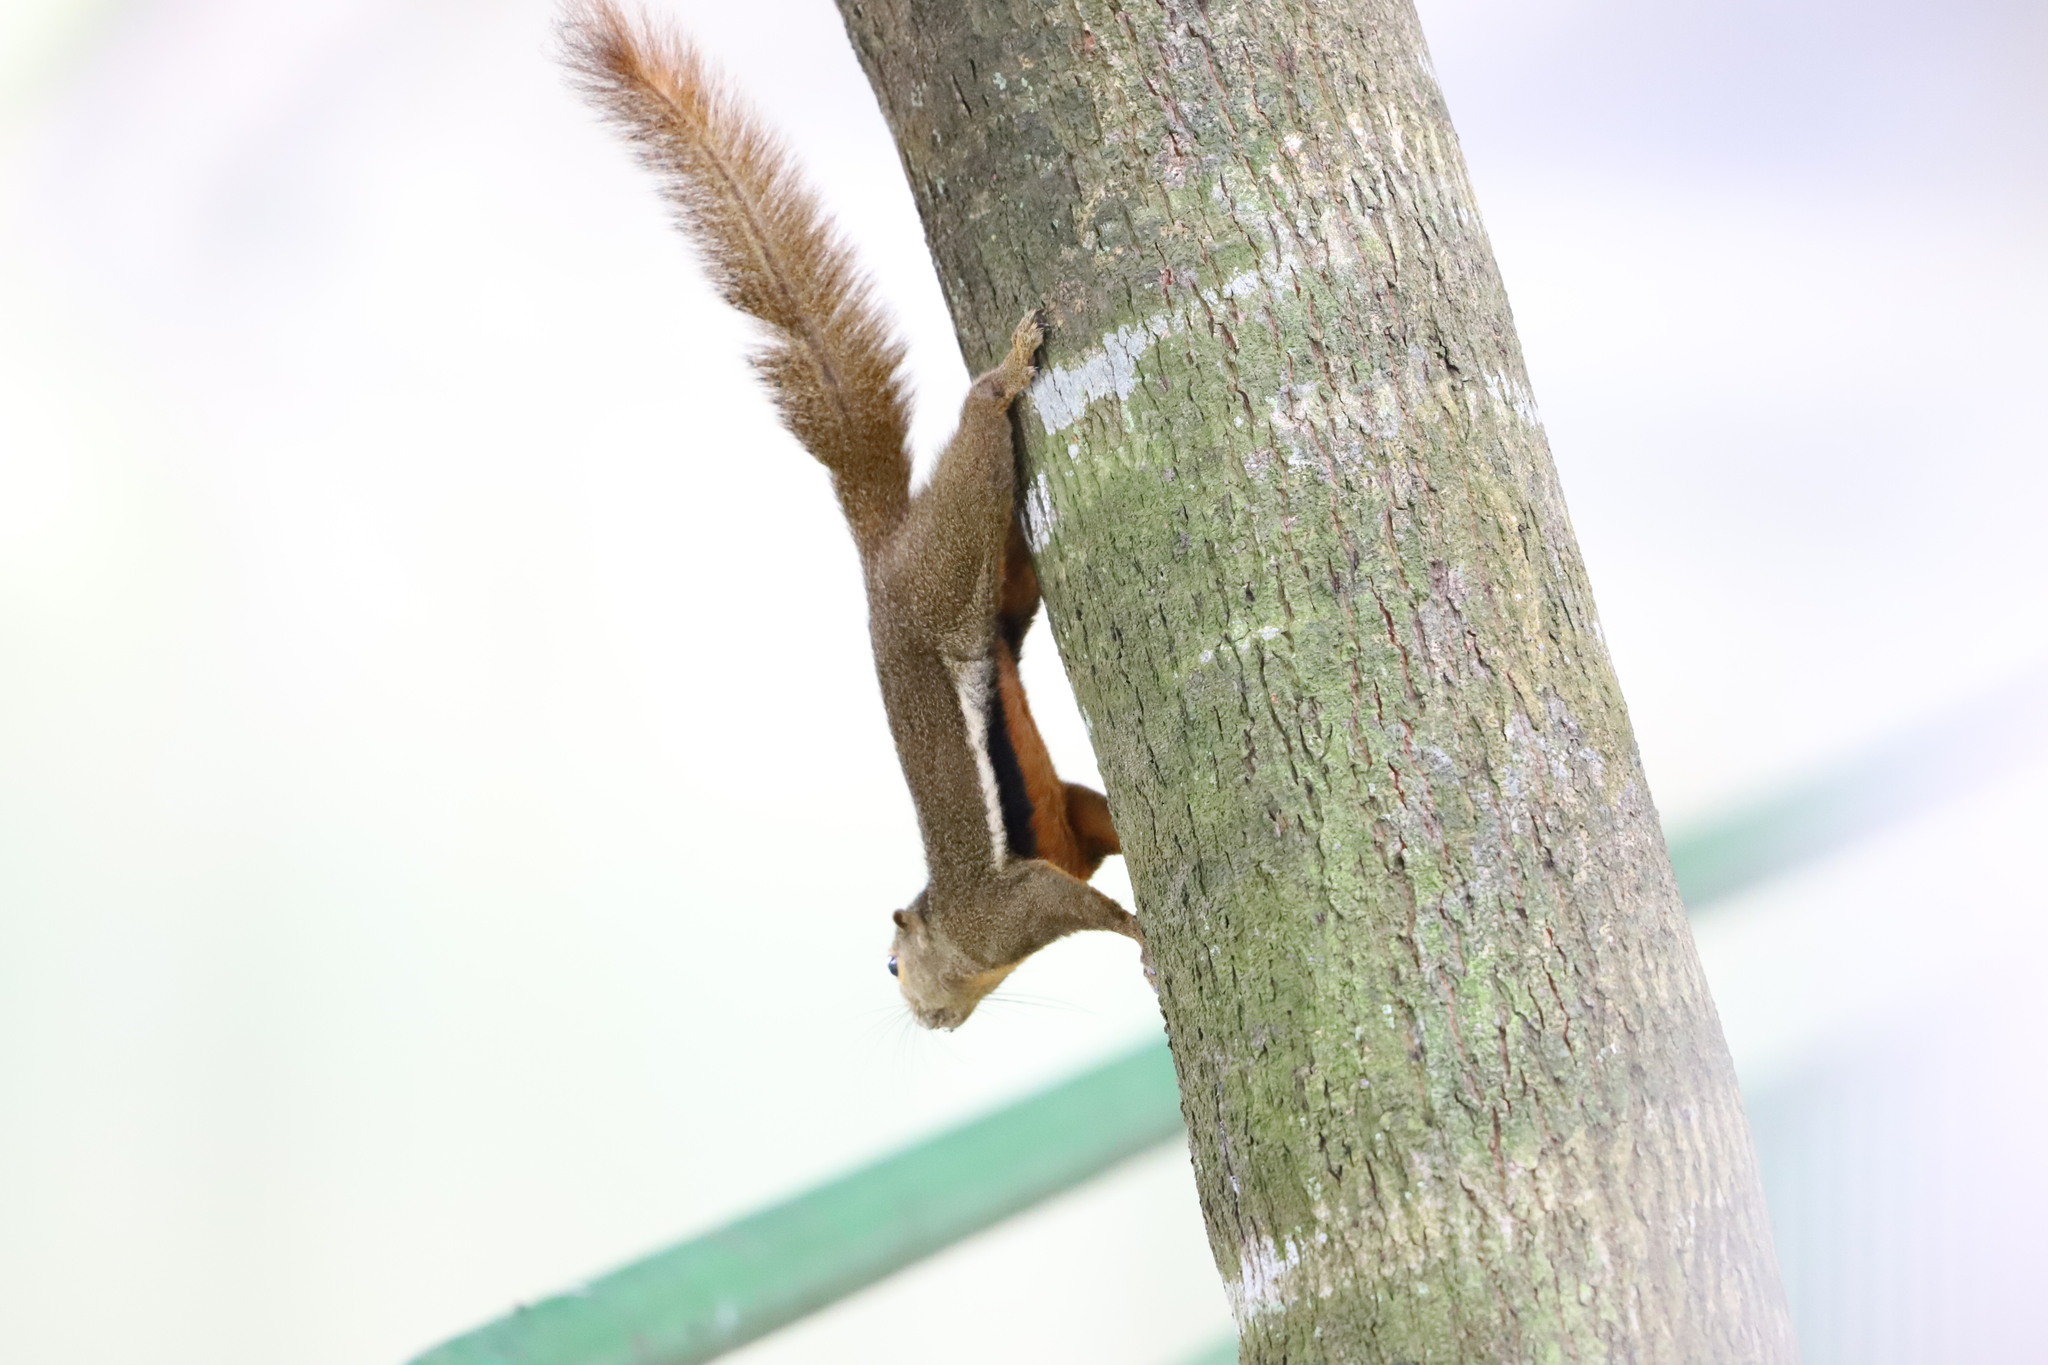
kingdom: Animalia
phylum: Chordata
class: Mammalia
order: Rodentia
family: Sciuridae
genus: Callosciurus
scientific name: Callosciurus notatus
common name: Plantain squirrel
